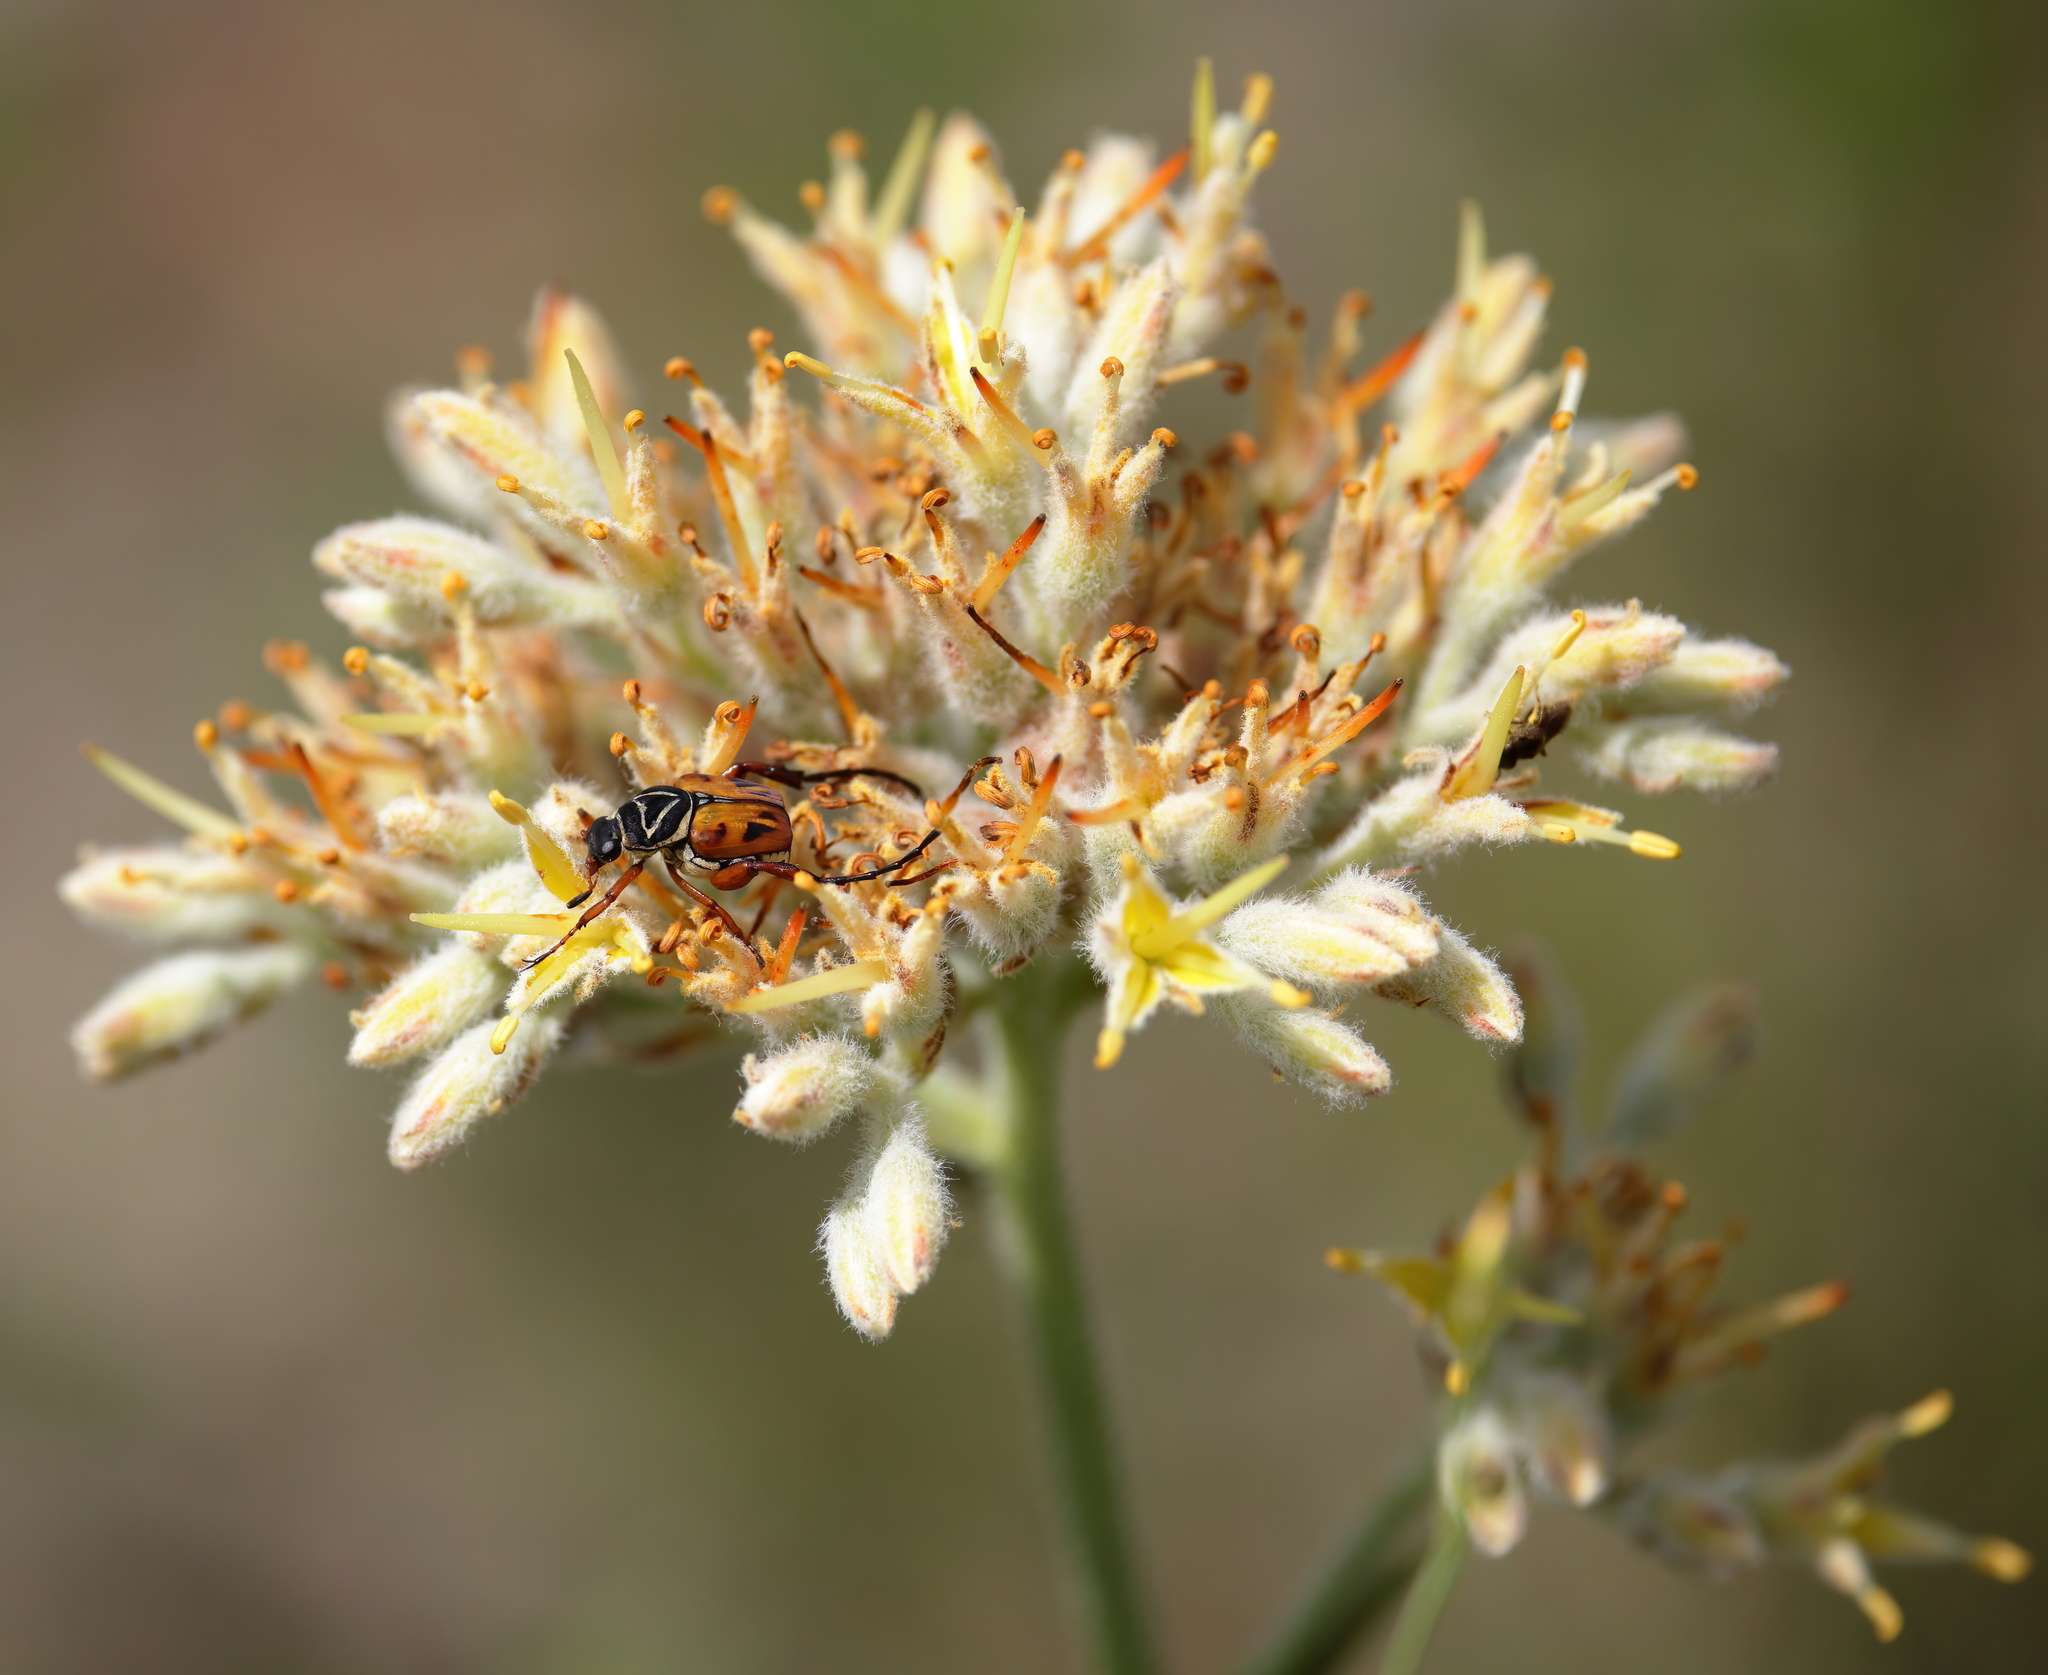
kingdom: Animalia
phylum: Arthropoda
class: Insecta
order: Coleoptera
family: Scarabaeidae
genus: Trigonopeltastes
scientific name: Trigonopeltastes delta
